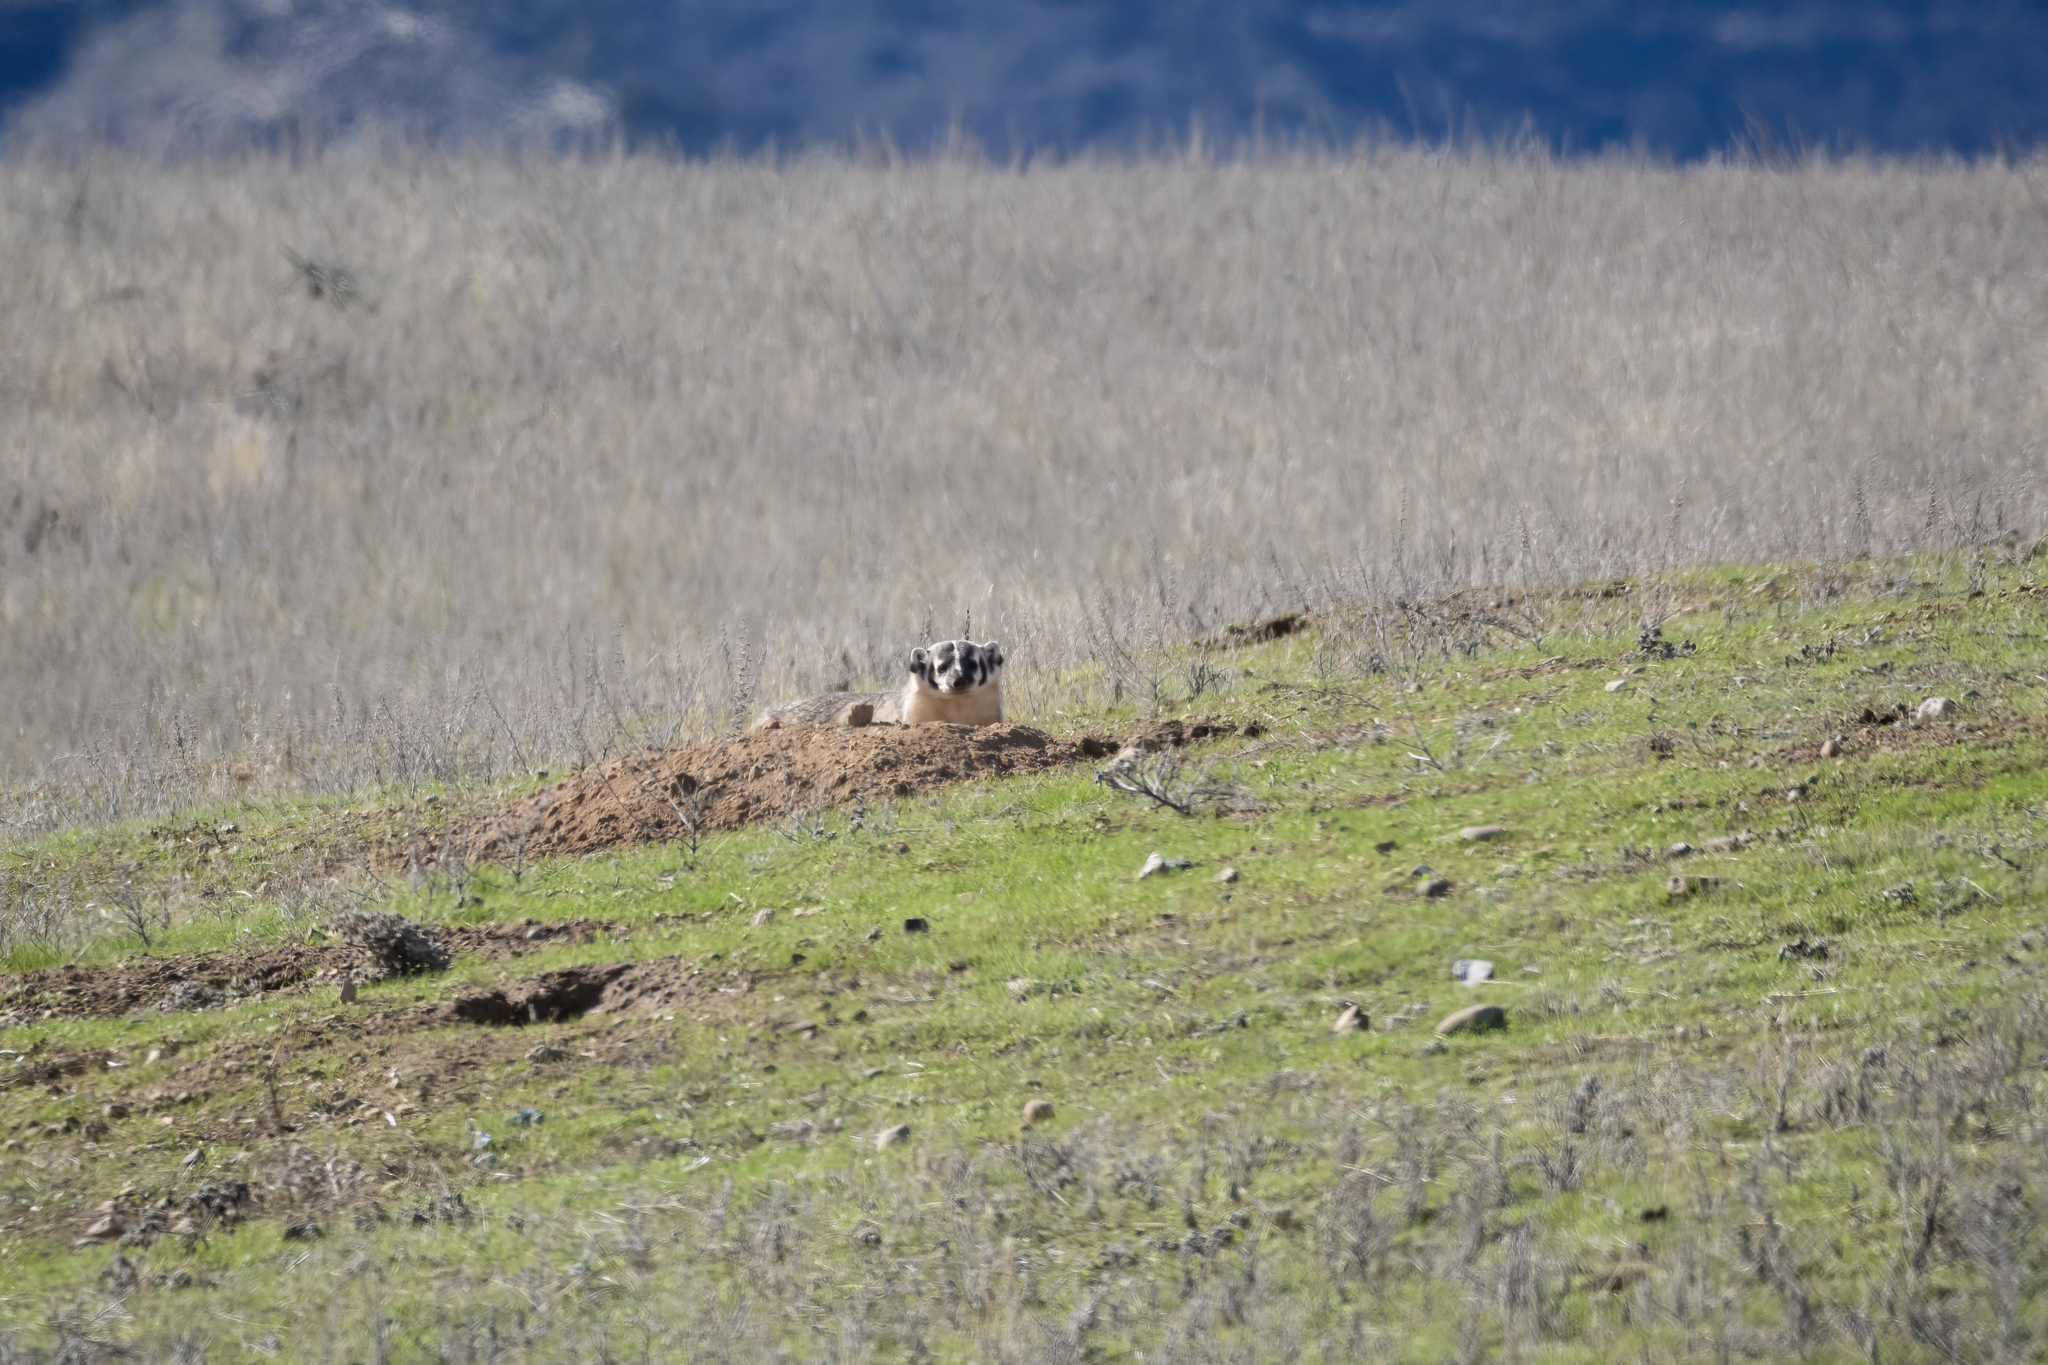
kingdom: Animalia
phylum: Chordata
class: Mammalia
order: Carnivora
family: Mustelidae
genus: Taxidea
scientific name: Taxidea taxus
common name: American badger
